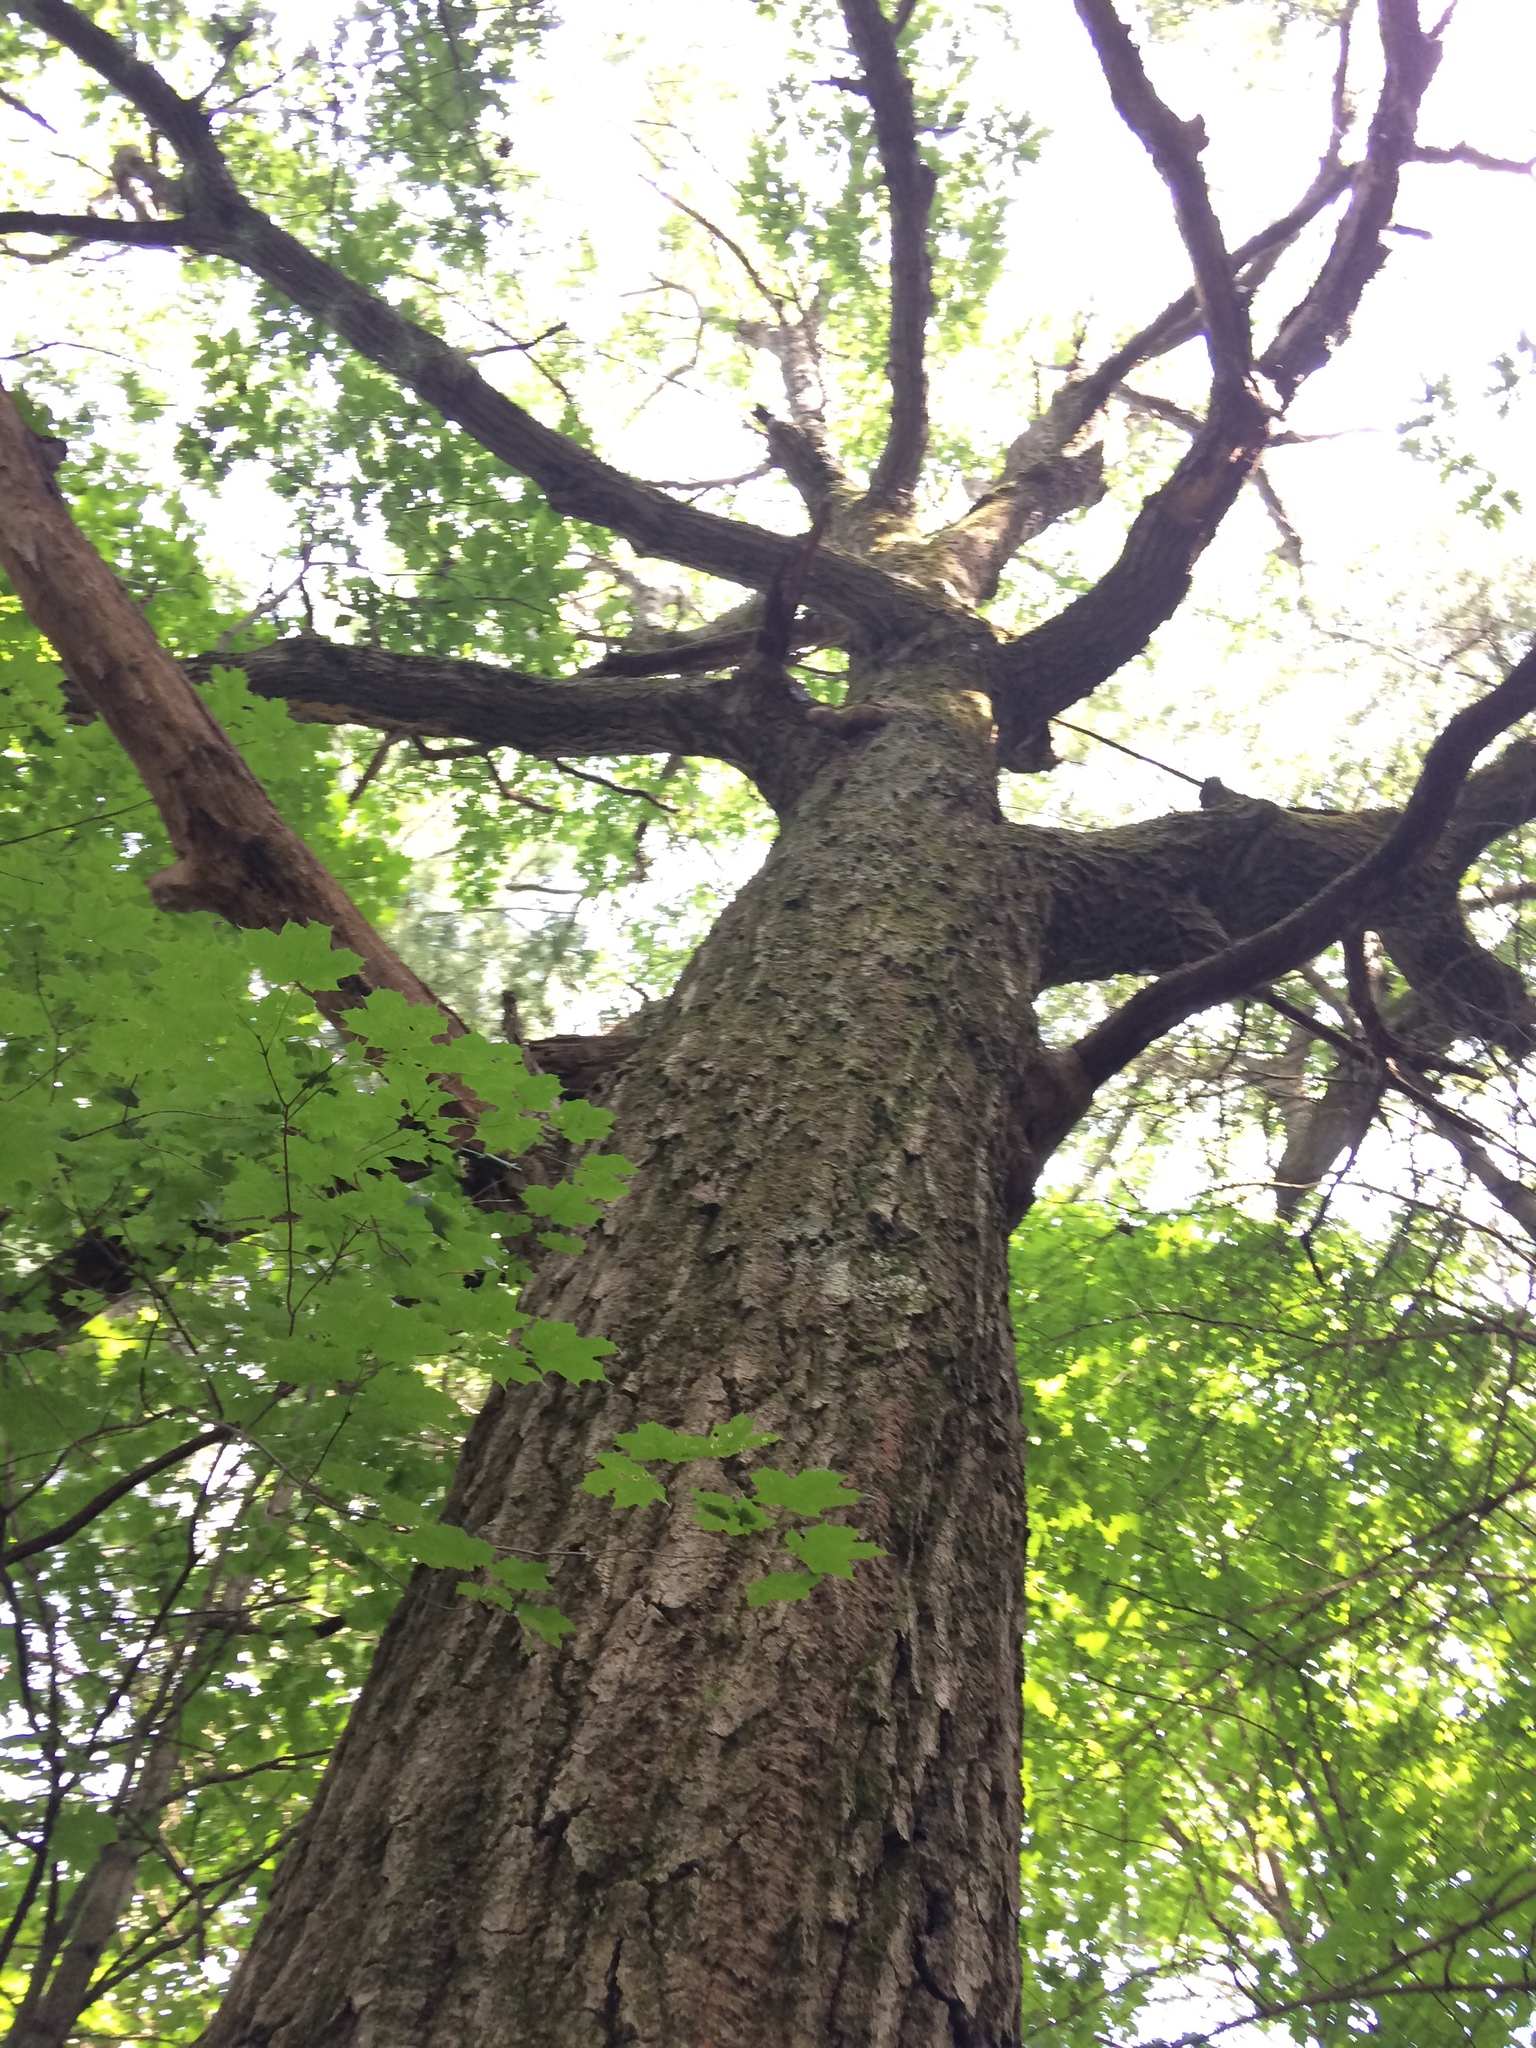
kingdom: Plantae
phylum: Tracheophyta
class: Magnoliopsida
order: Fagales
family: Fagaceae
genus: Quercus
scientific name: Quercus rubra
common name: Red oak
